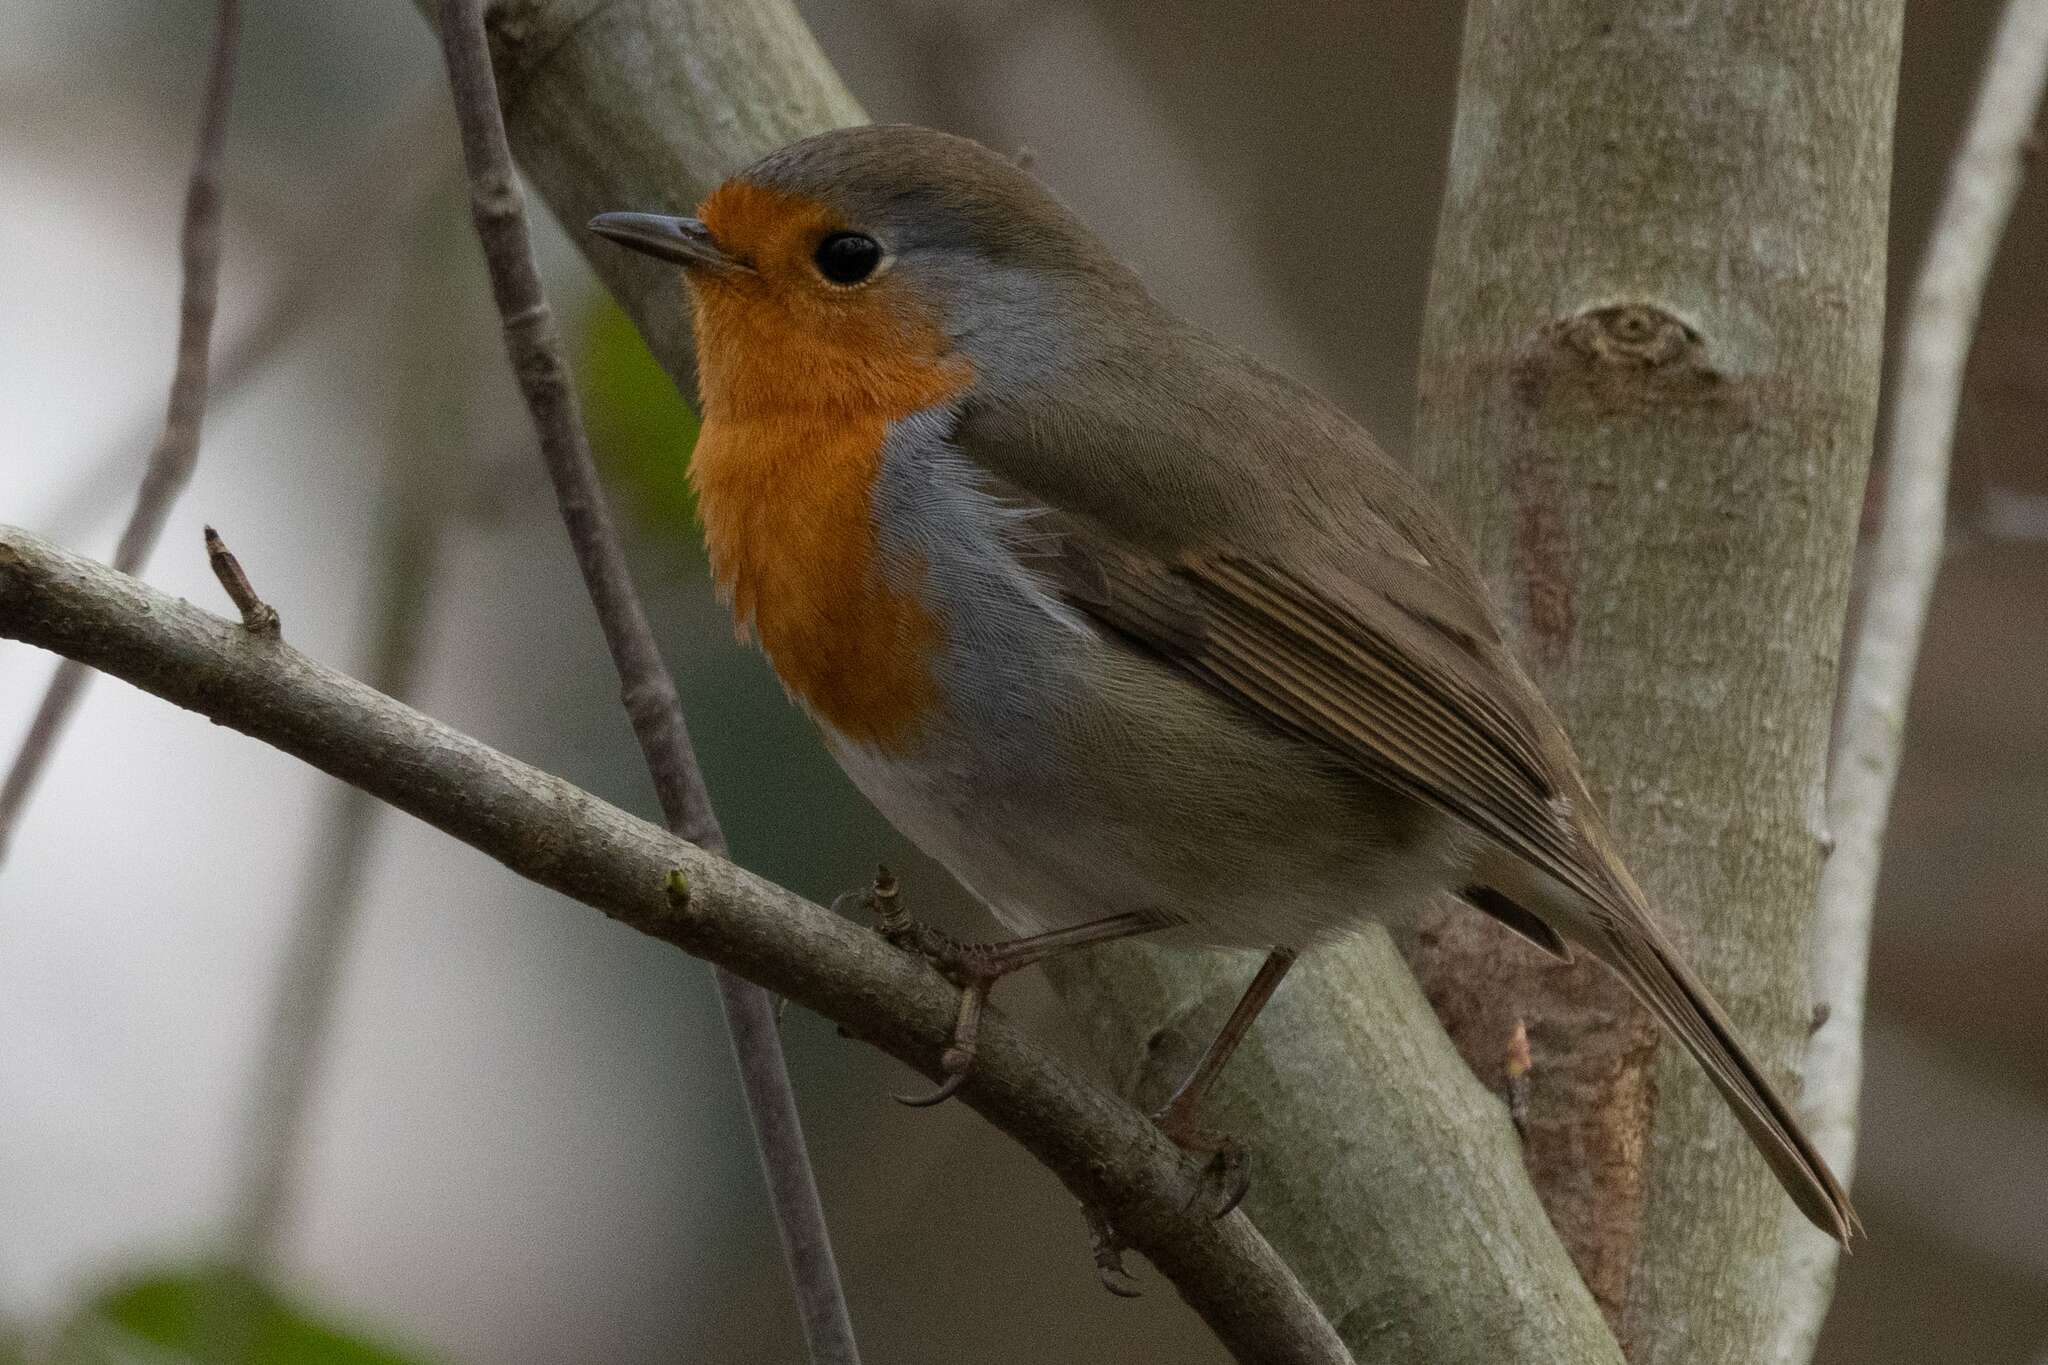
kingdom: Animalia
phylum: Chordata
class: Aves
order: Passeriformes
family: Muscicapidae
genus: Erithacus
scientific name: Erithacus rubecula
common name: European robin
